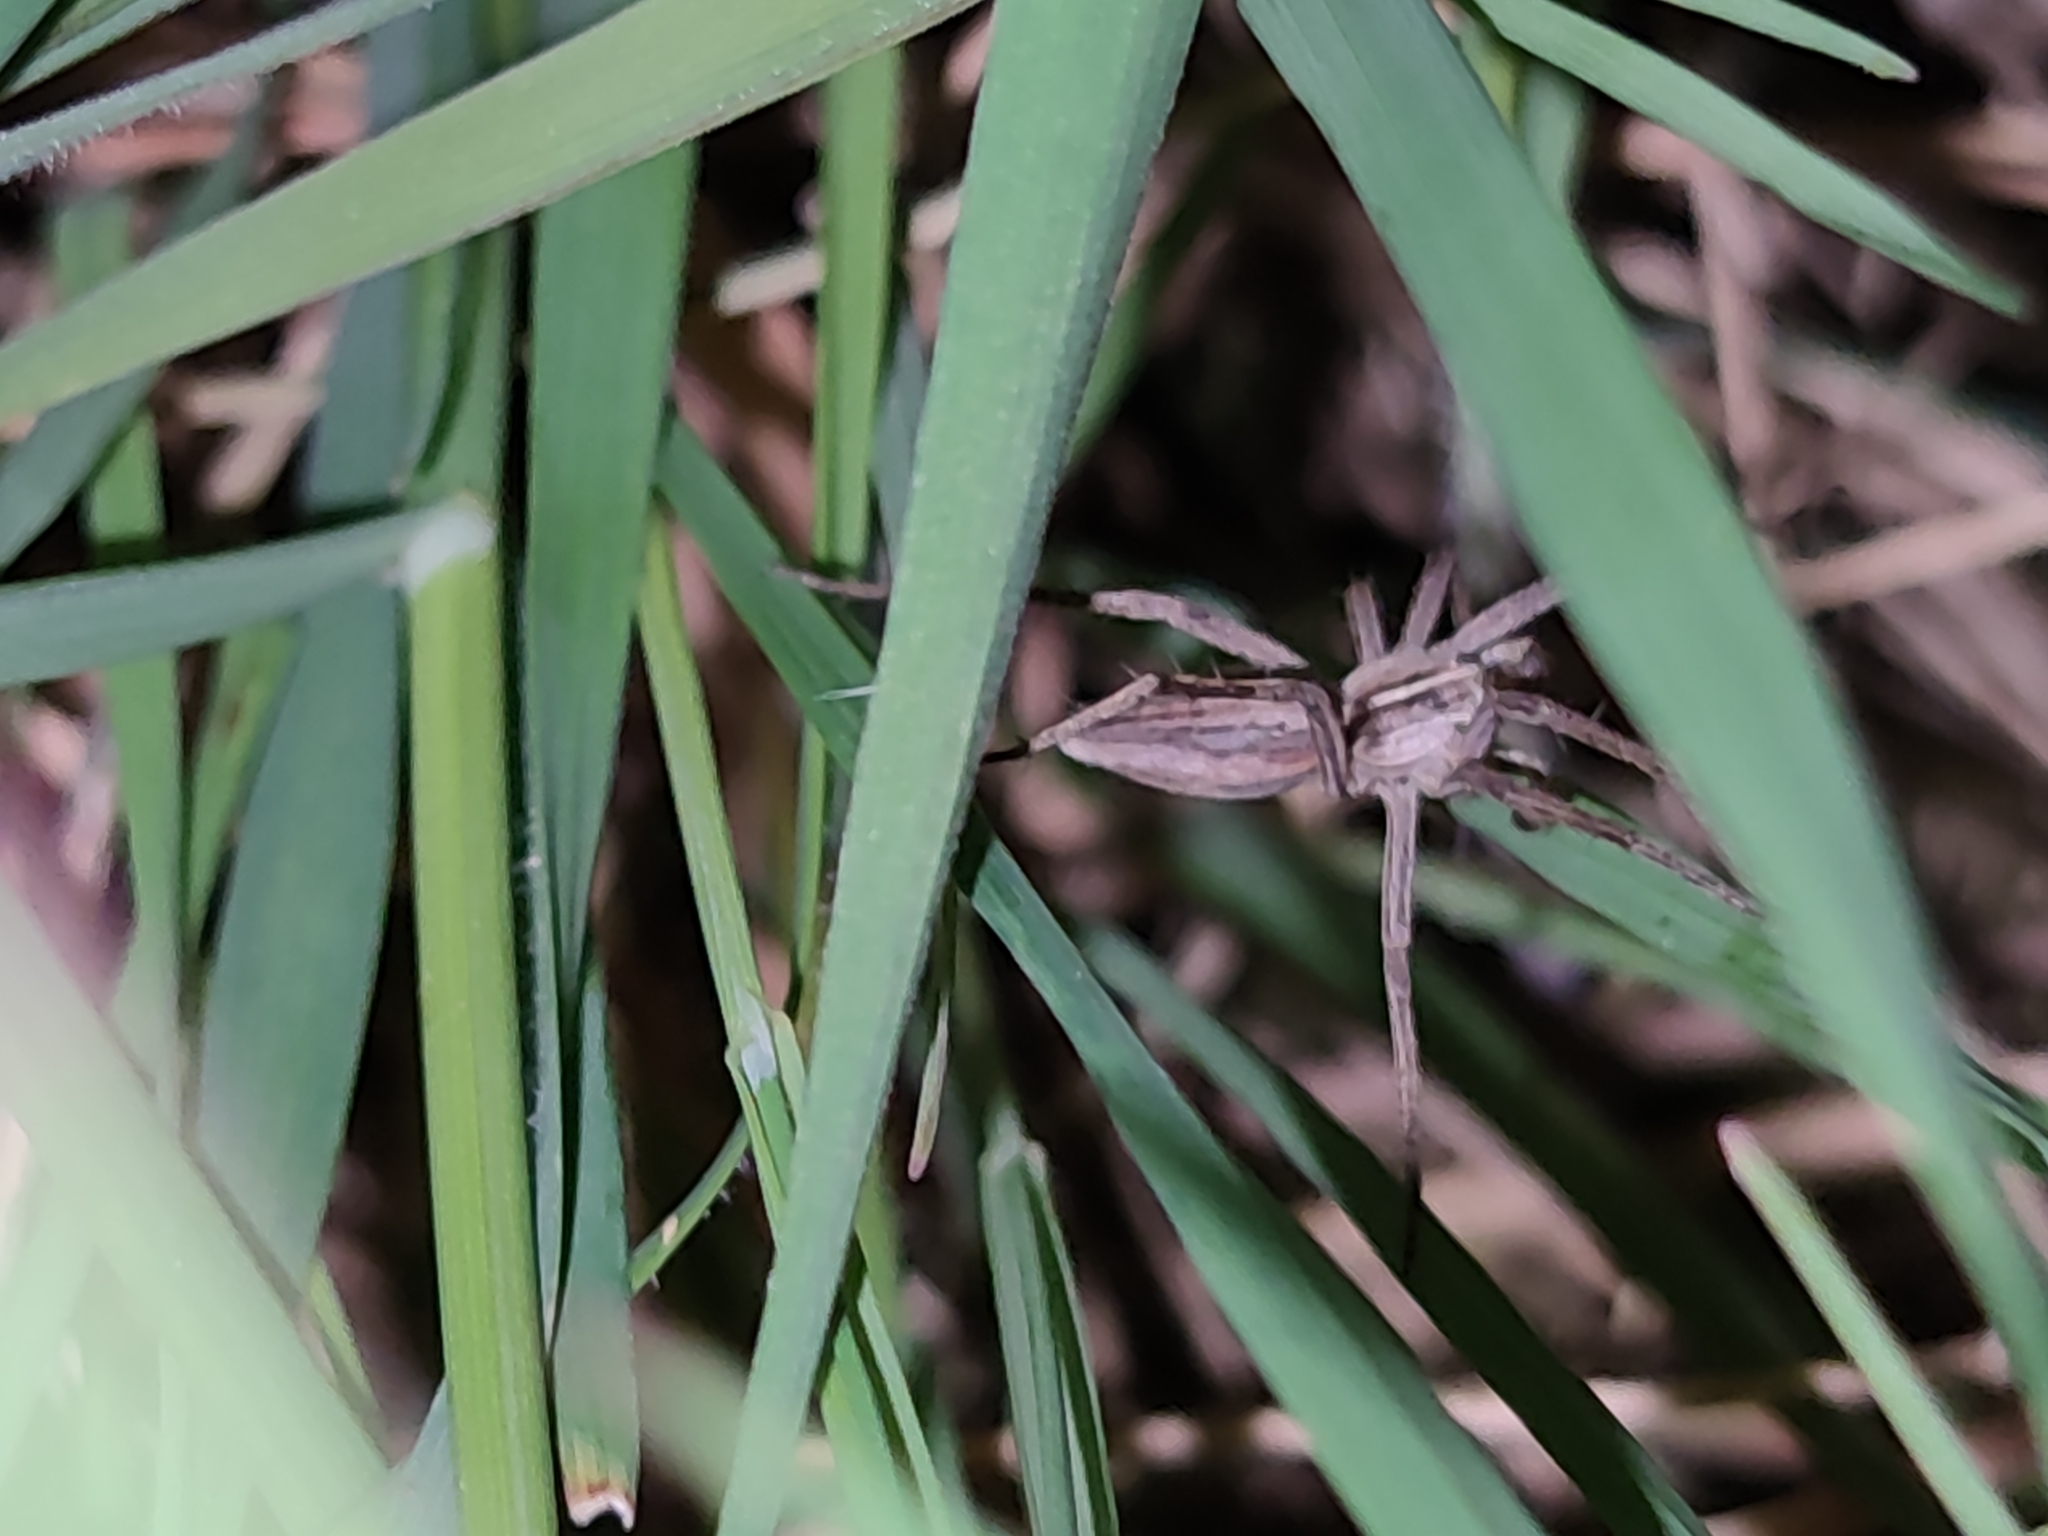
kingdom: Animalia
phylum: Arthropoda
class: Arachnida
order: Araneae
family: Pisauridae
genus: Pisaura
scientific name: Pisaura mirabilis
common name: Tent spider
